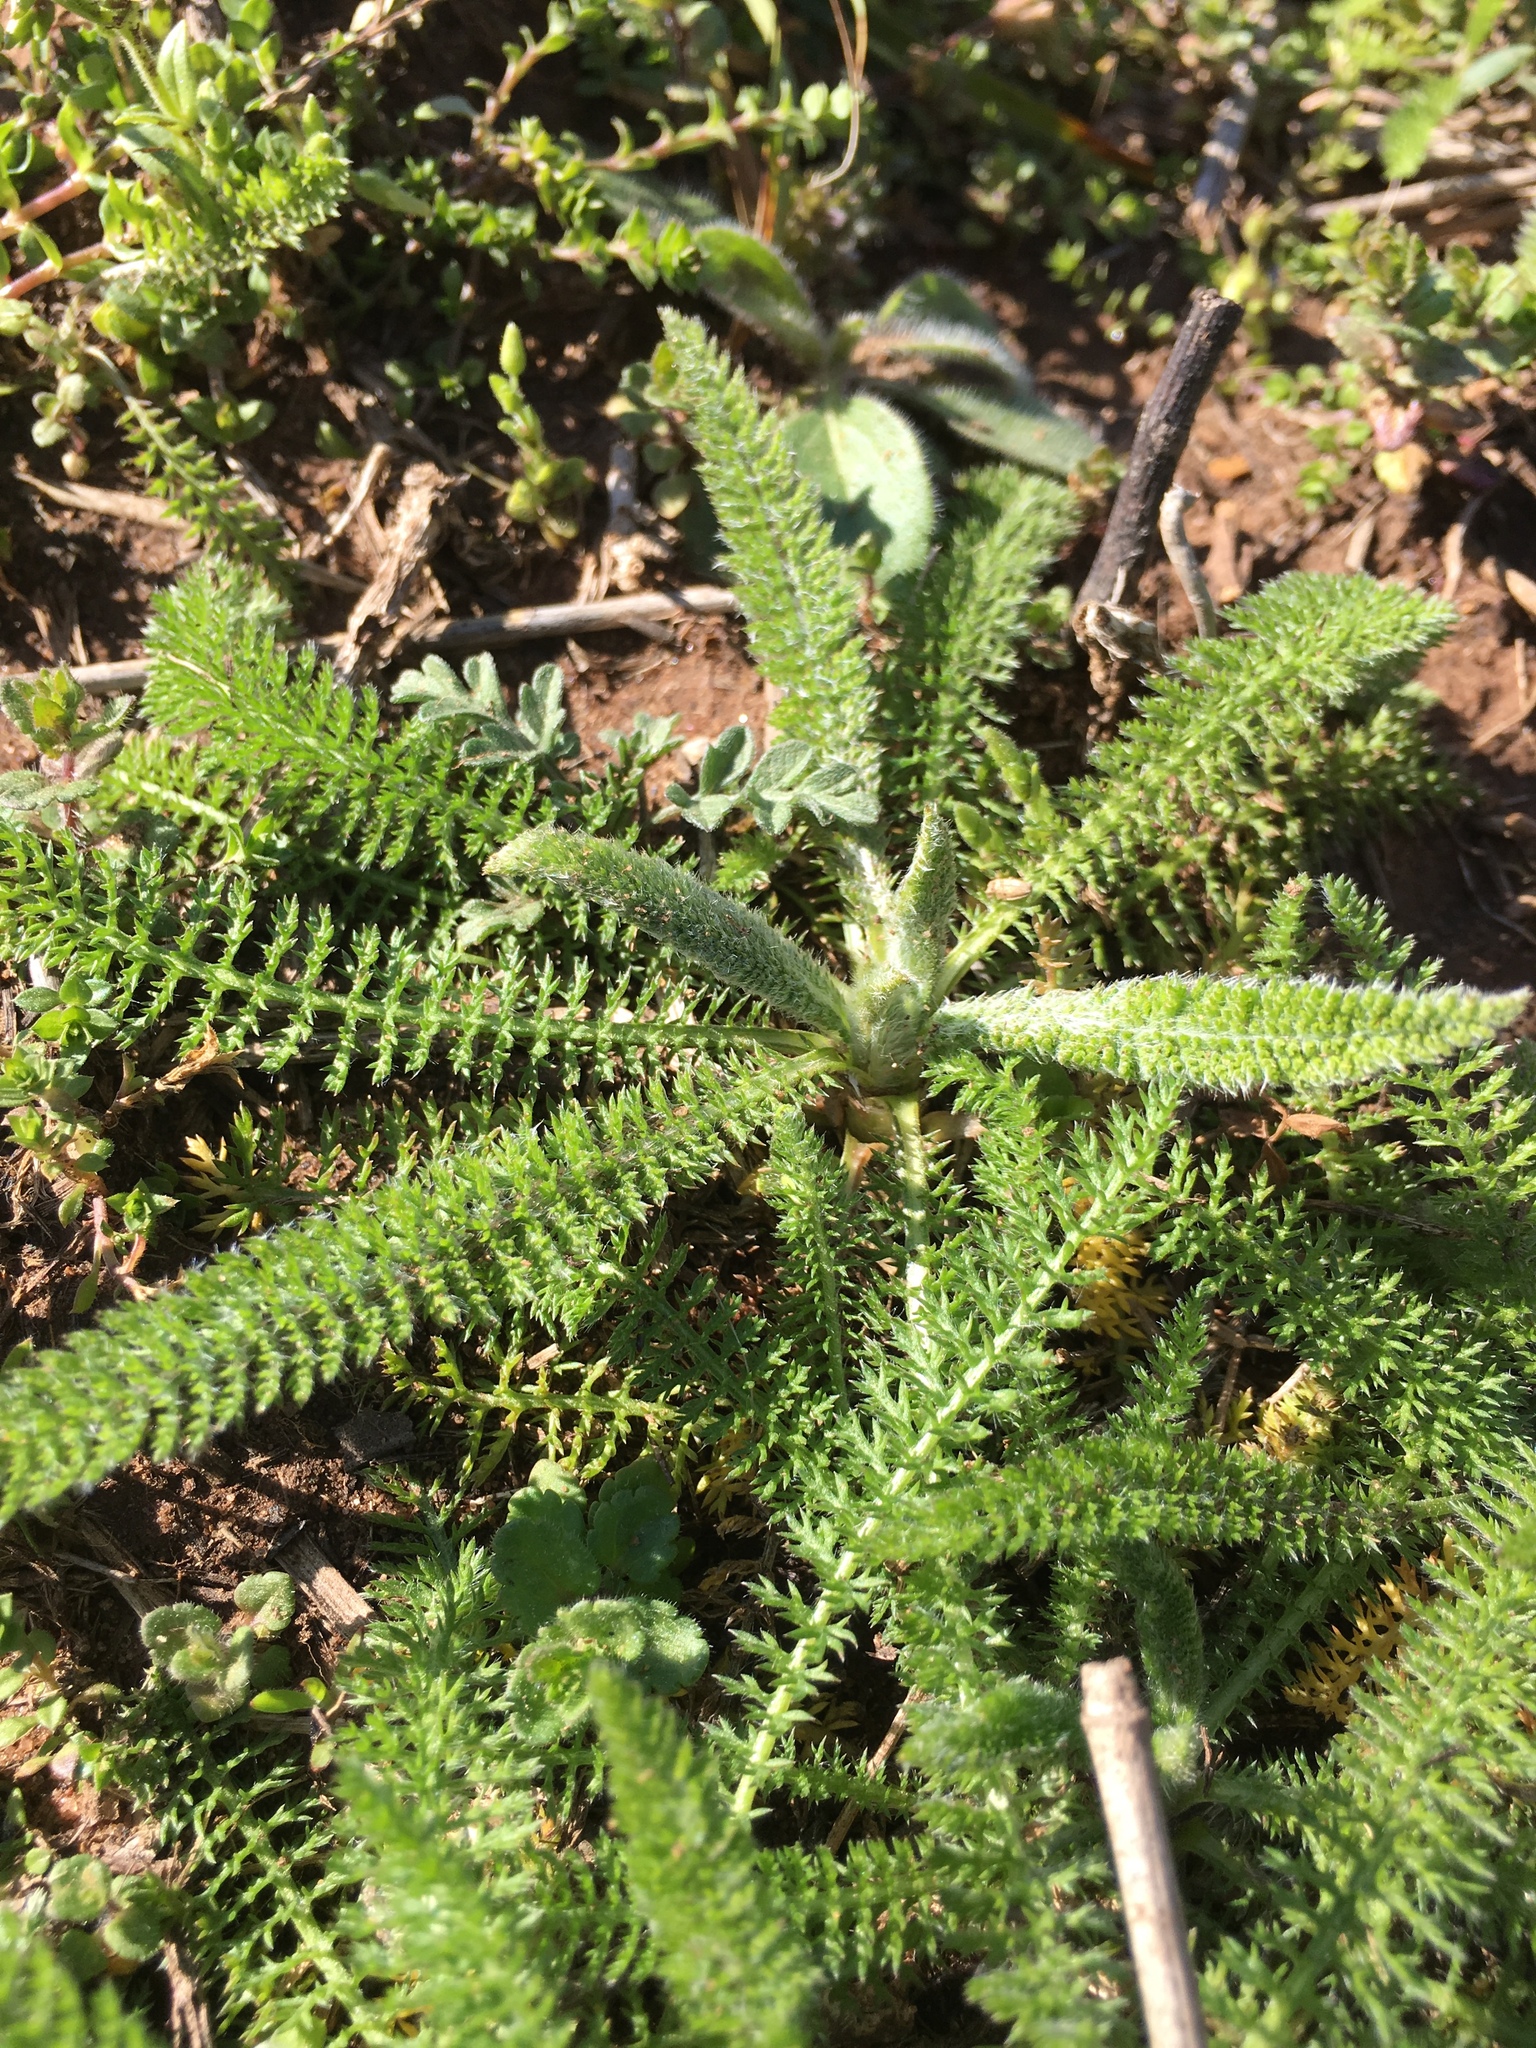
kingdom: Plantae
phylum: Tracheophyta
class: Magnoliopsida
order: Asterales
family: Asteraceae
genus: Achillea
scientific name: Achillea millefolium
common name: Yarrow
